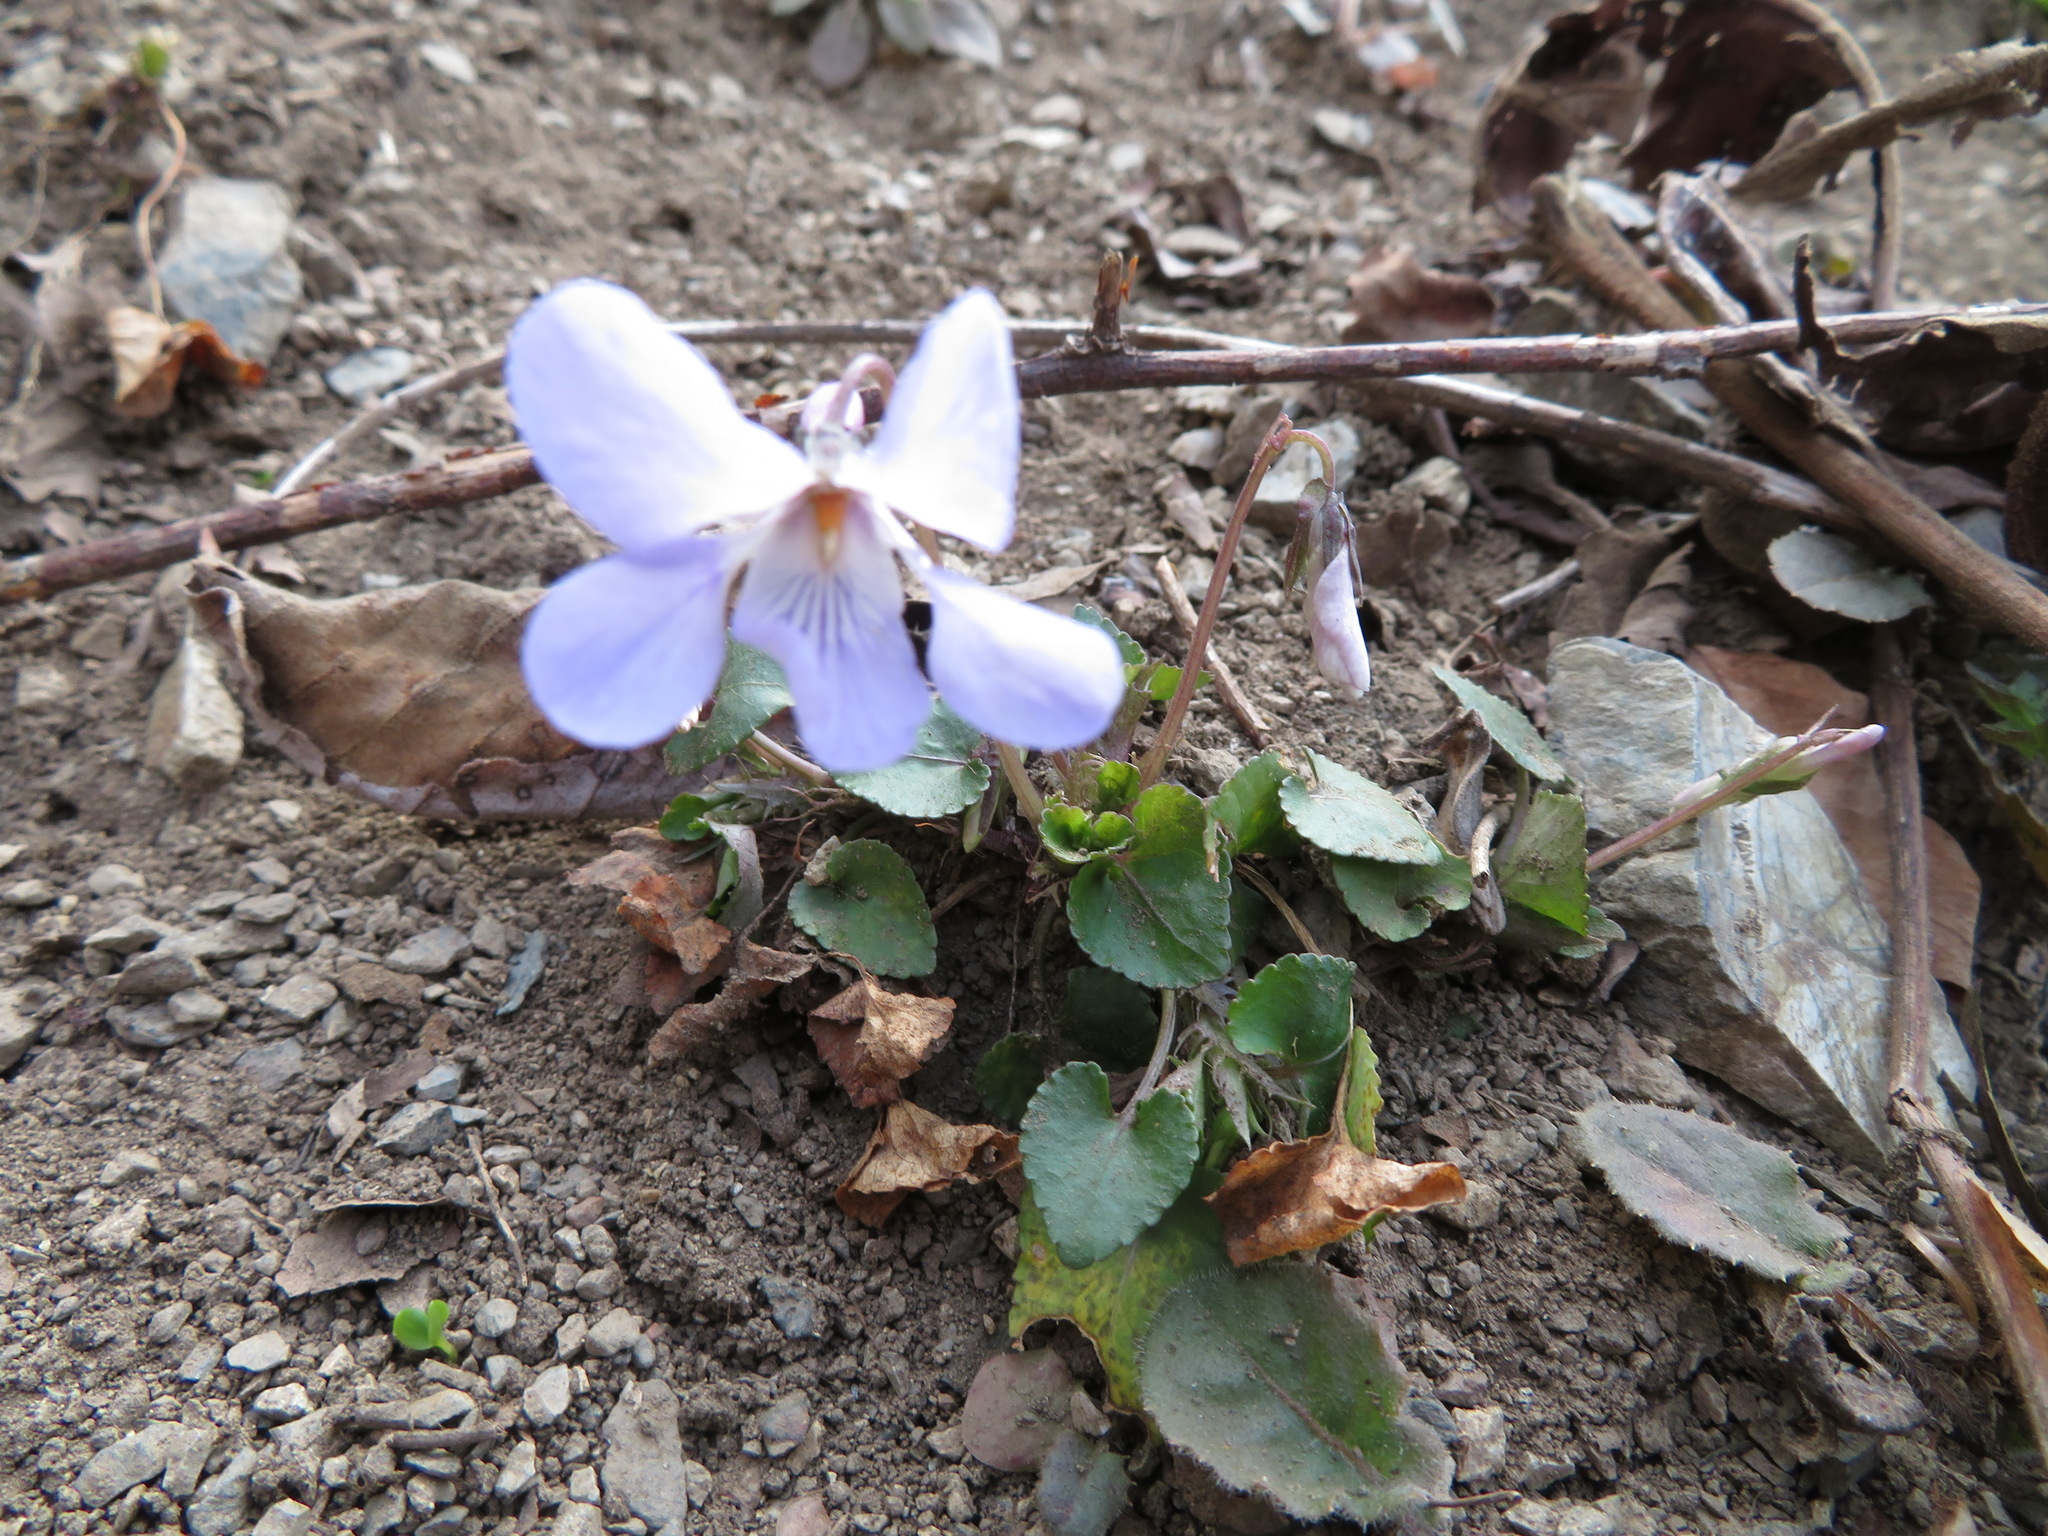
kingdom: Plantae
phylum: Tracheophyta
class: Magnoliopsida
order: Malpighiales
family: Violaceae
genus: Viola
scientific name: Viola grypoceras
